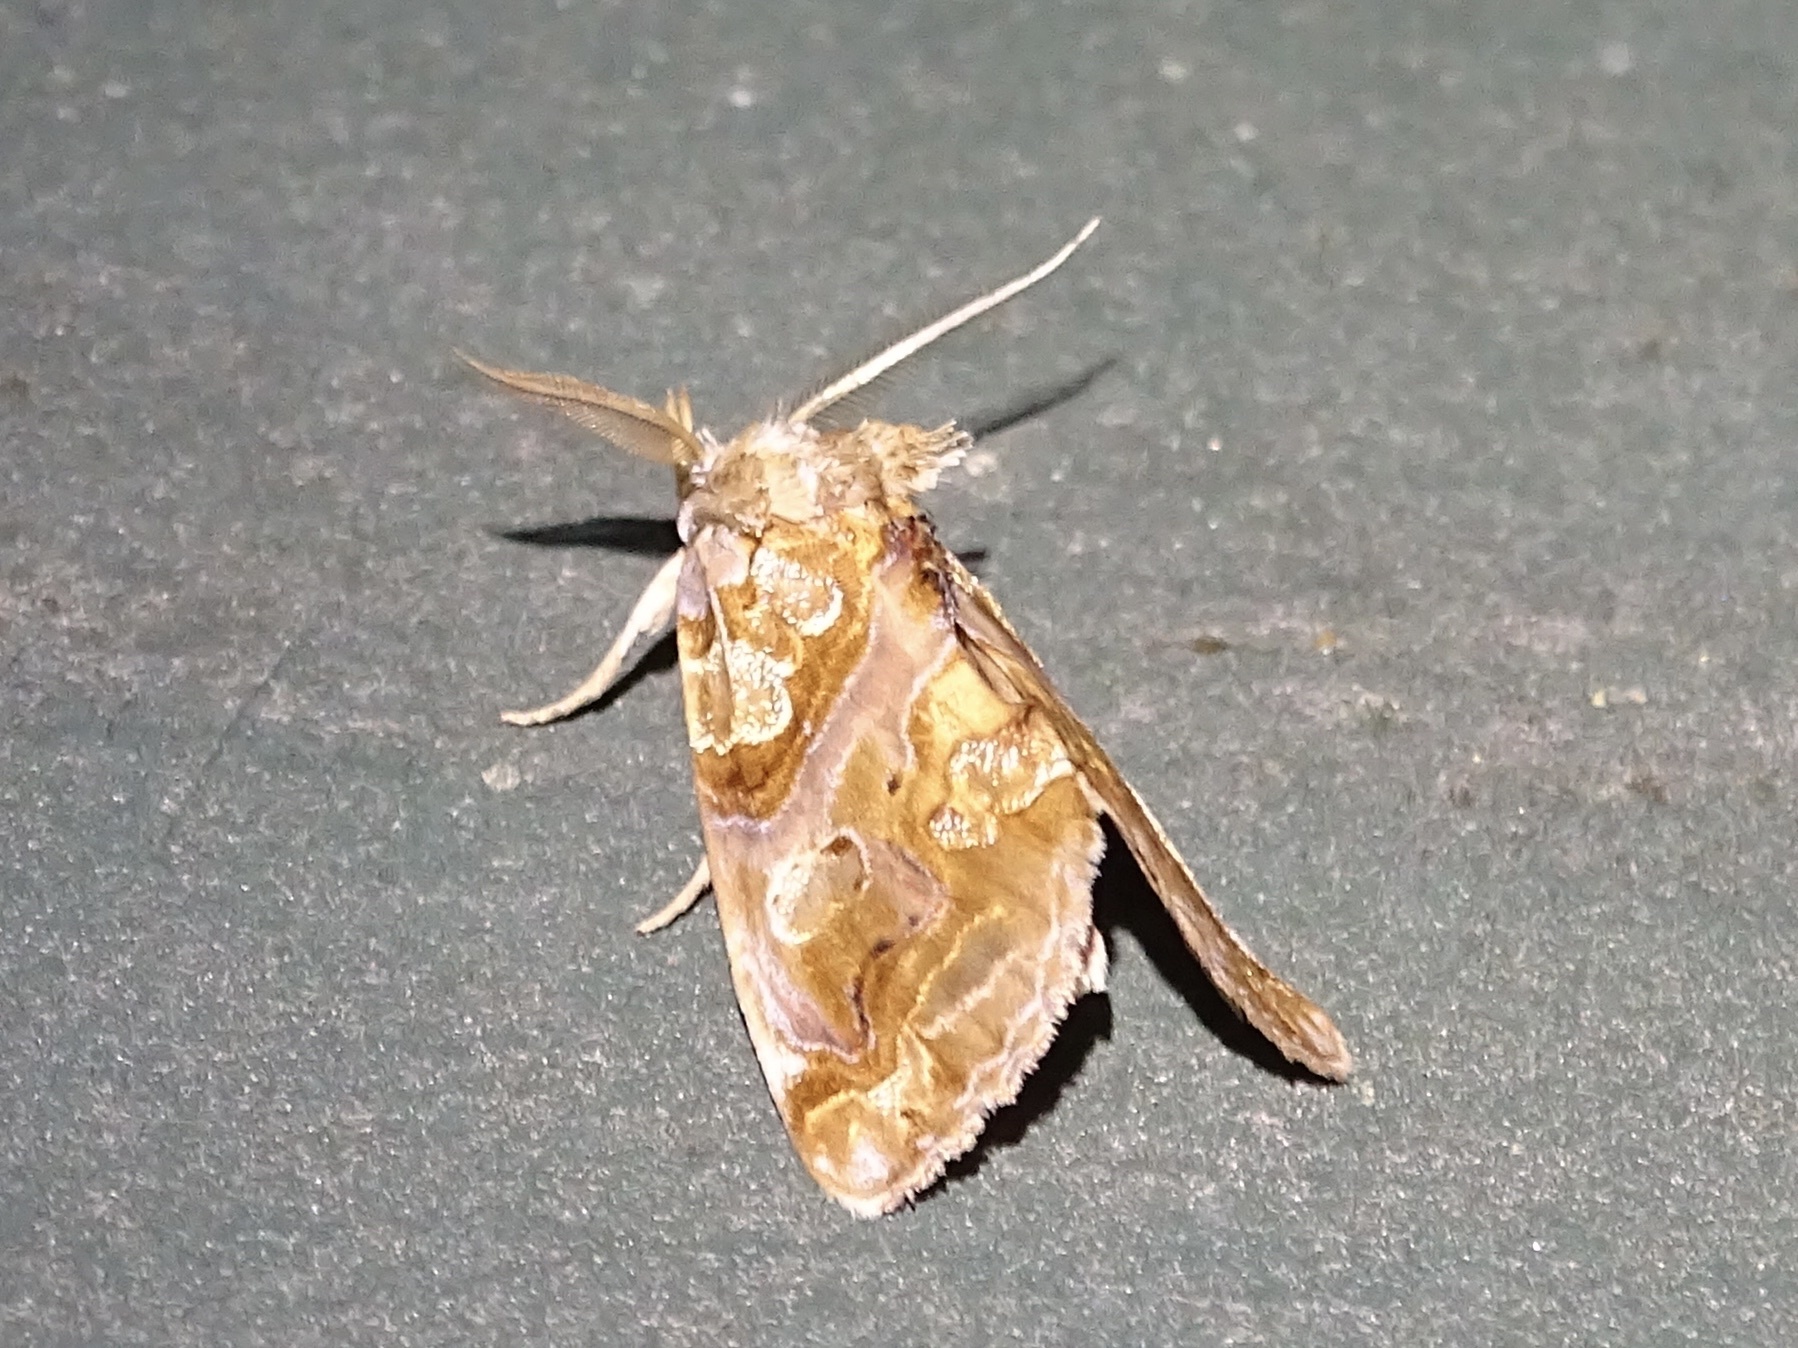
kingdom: Animalia
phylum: Arthropoda
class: Insecta
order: Lepidoptera
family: Erebidae
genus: Plusiodonta
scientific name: Plusiodonta compressipalpis
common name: Moonseed moth
